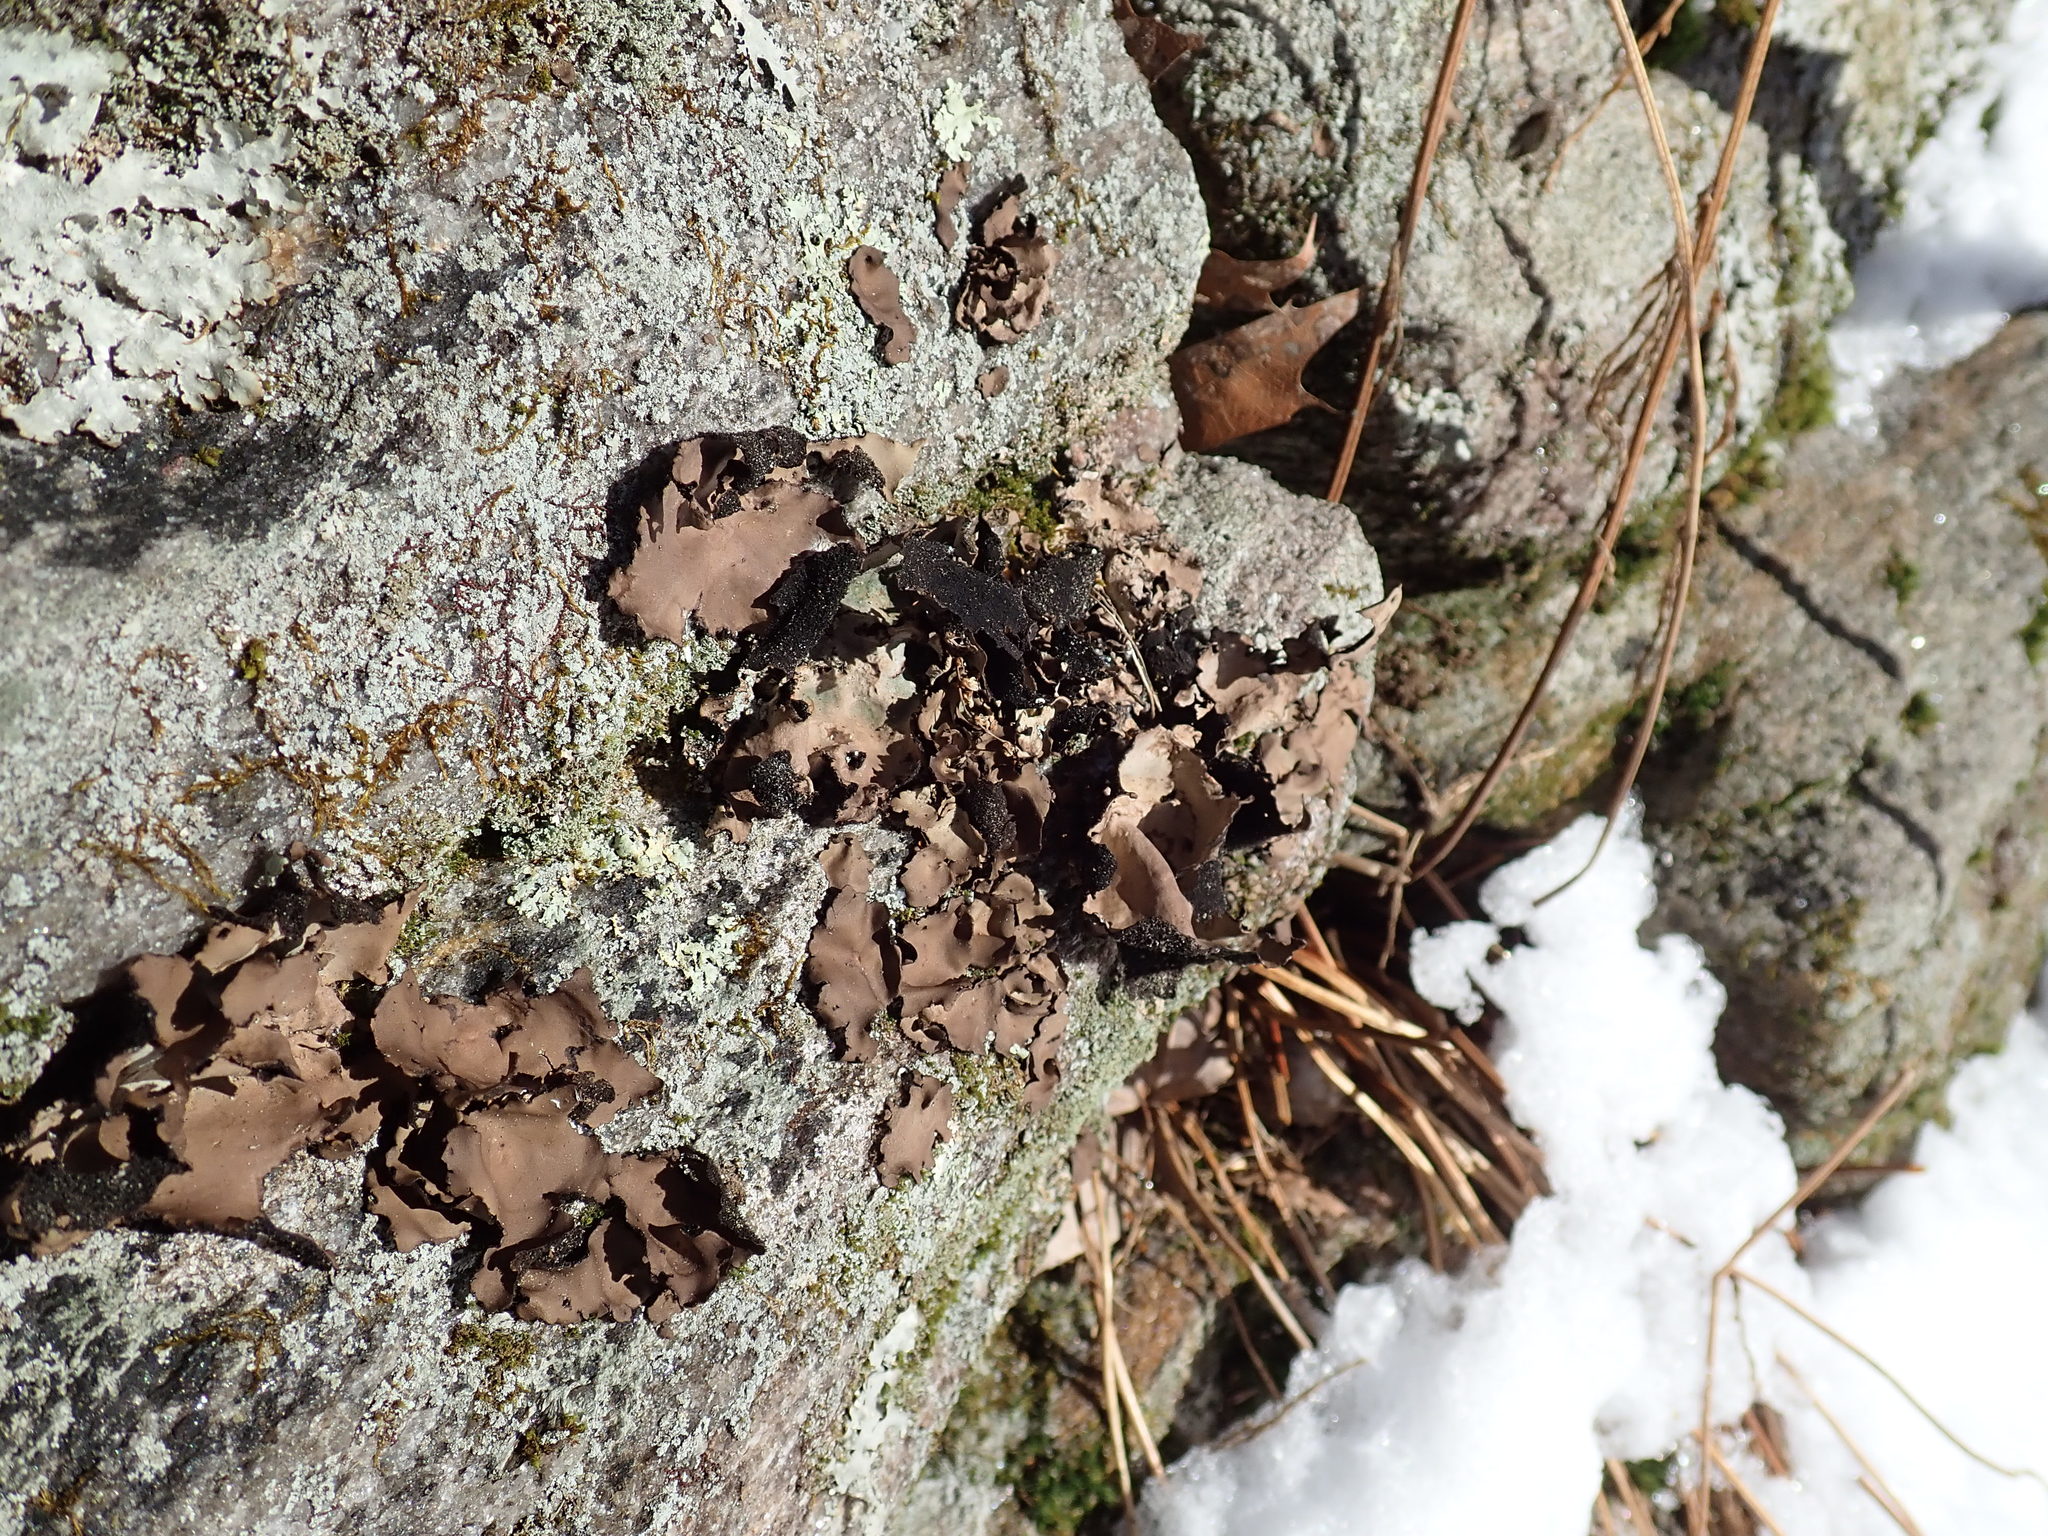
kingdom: Fungi
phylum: Ascomycota
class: Lecanoromycetes
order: Umbilicariales
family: Umbilicariaceae
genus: Umbilicaria
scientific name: Umbilicaria mammulata
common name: Smooth rock tripe
